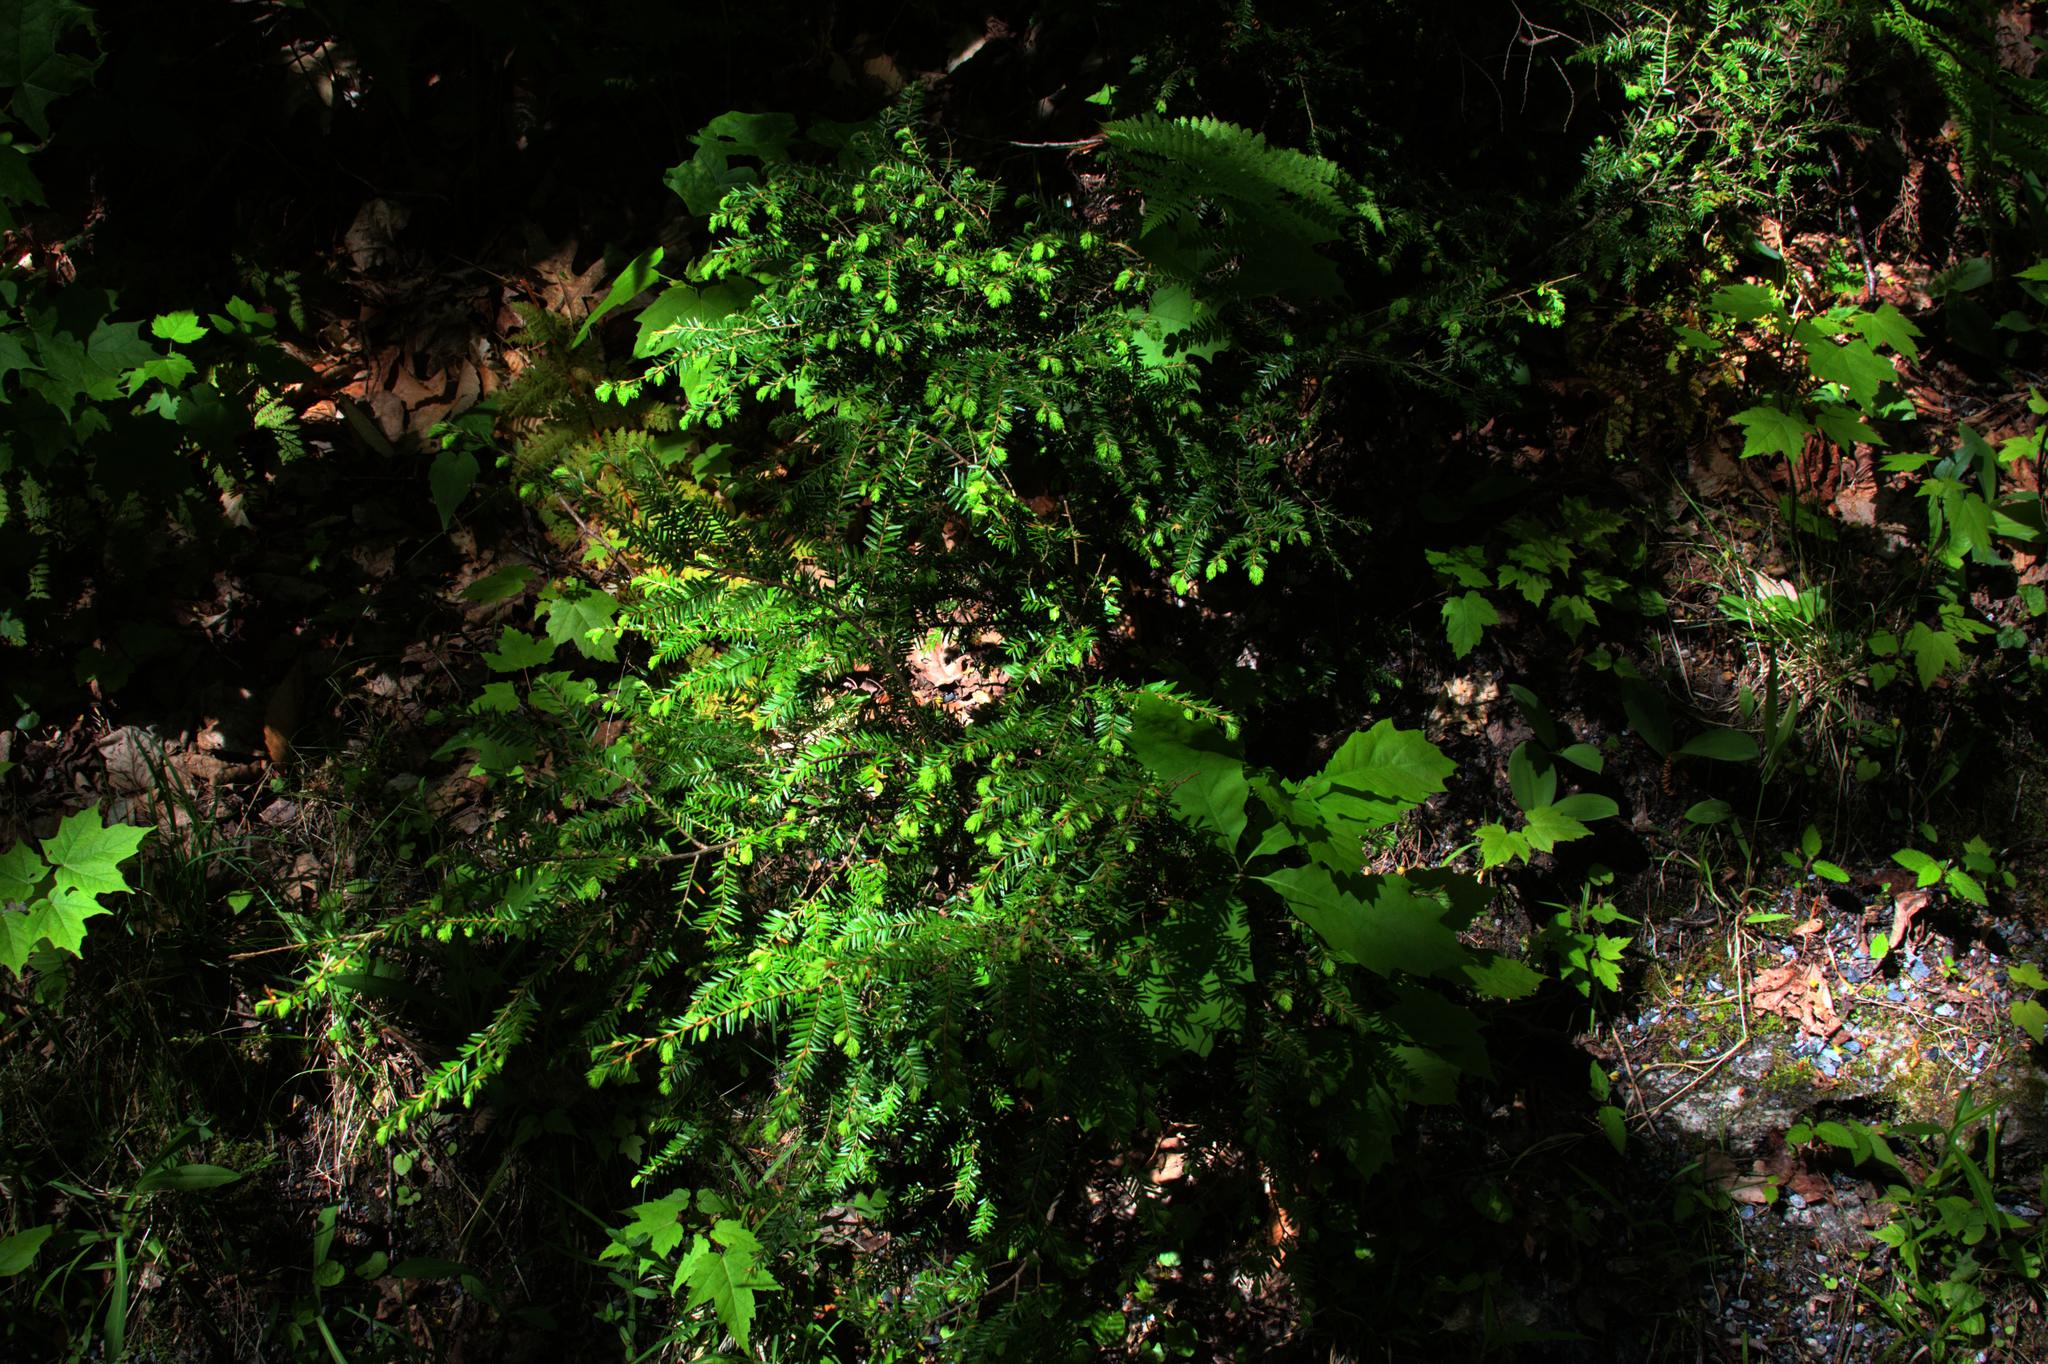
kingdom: Plantae
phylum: Tracheophyta
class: Pinopsida
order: Pinales
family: Pinaceae
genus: Tsuga
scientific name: Tsuga canadensis
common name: Eastern hemlock
